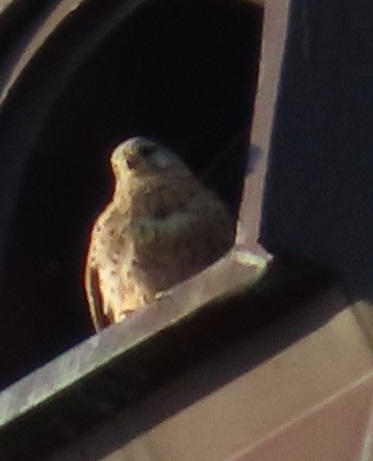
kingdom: Animalia
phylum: Chordata
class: Aves
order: Falconiformes
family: Falconidae
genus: Falco
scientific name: Falco tinnunculus
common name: Common kestrel
